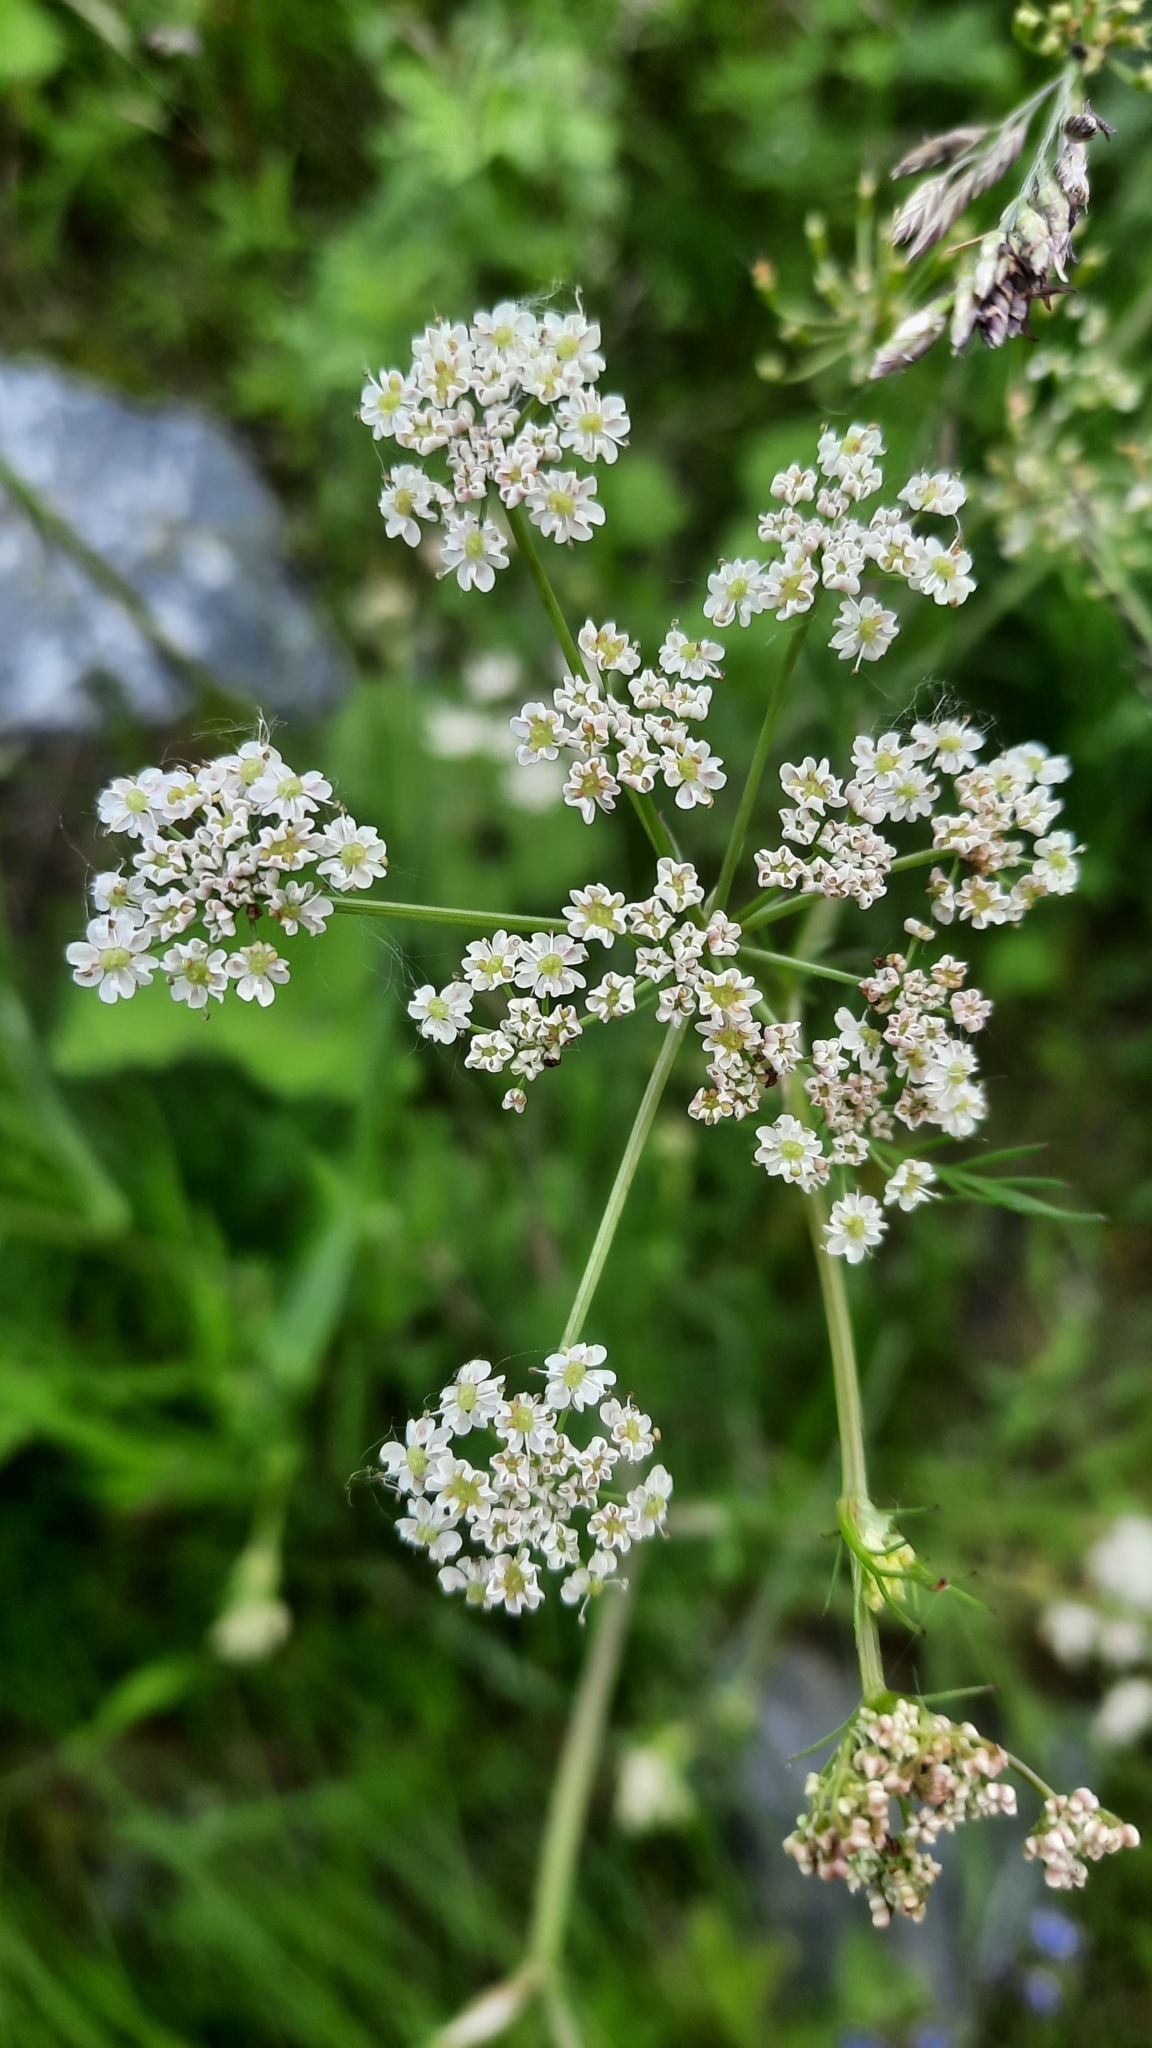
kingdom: Plantae
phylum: Tracheophyta
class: Magnoliopsida
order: Apiales
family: Apiaceae
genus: Carum
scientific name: Carum carvi
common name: Caraway
